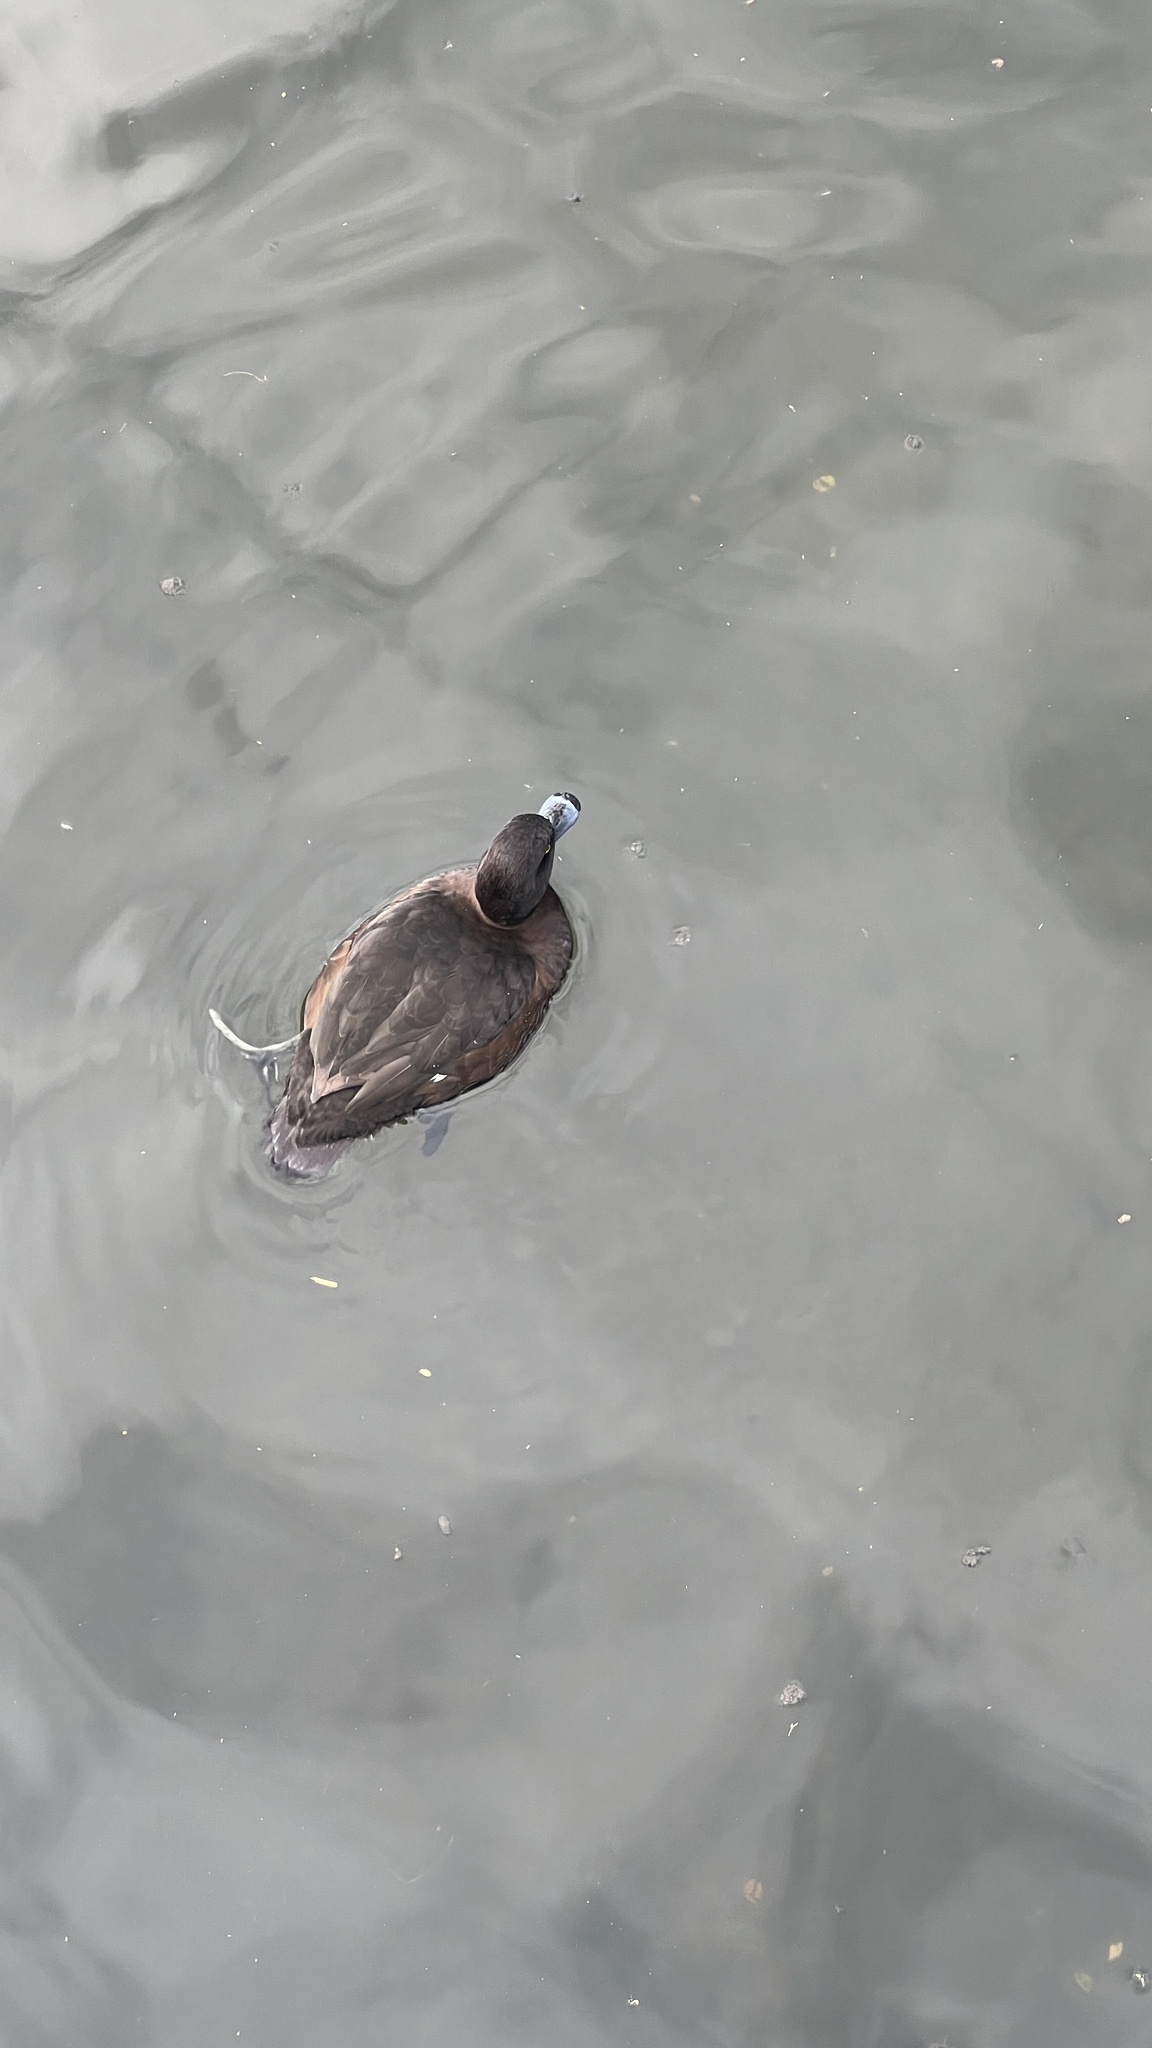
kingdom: Animalia
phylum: Chordata
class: Aves
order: Anseriformes
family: Anatidae
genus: Aythya
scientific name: Aythya fuligula
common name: Tufted duck
